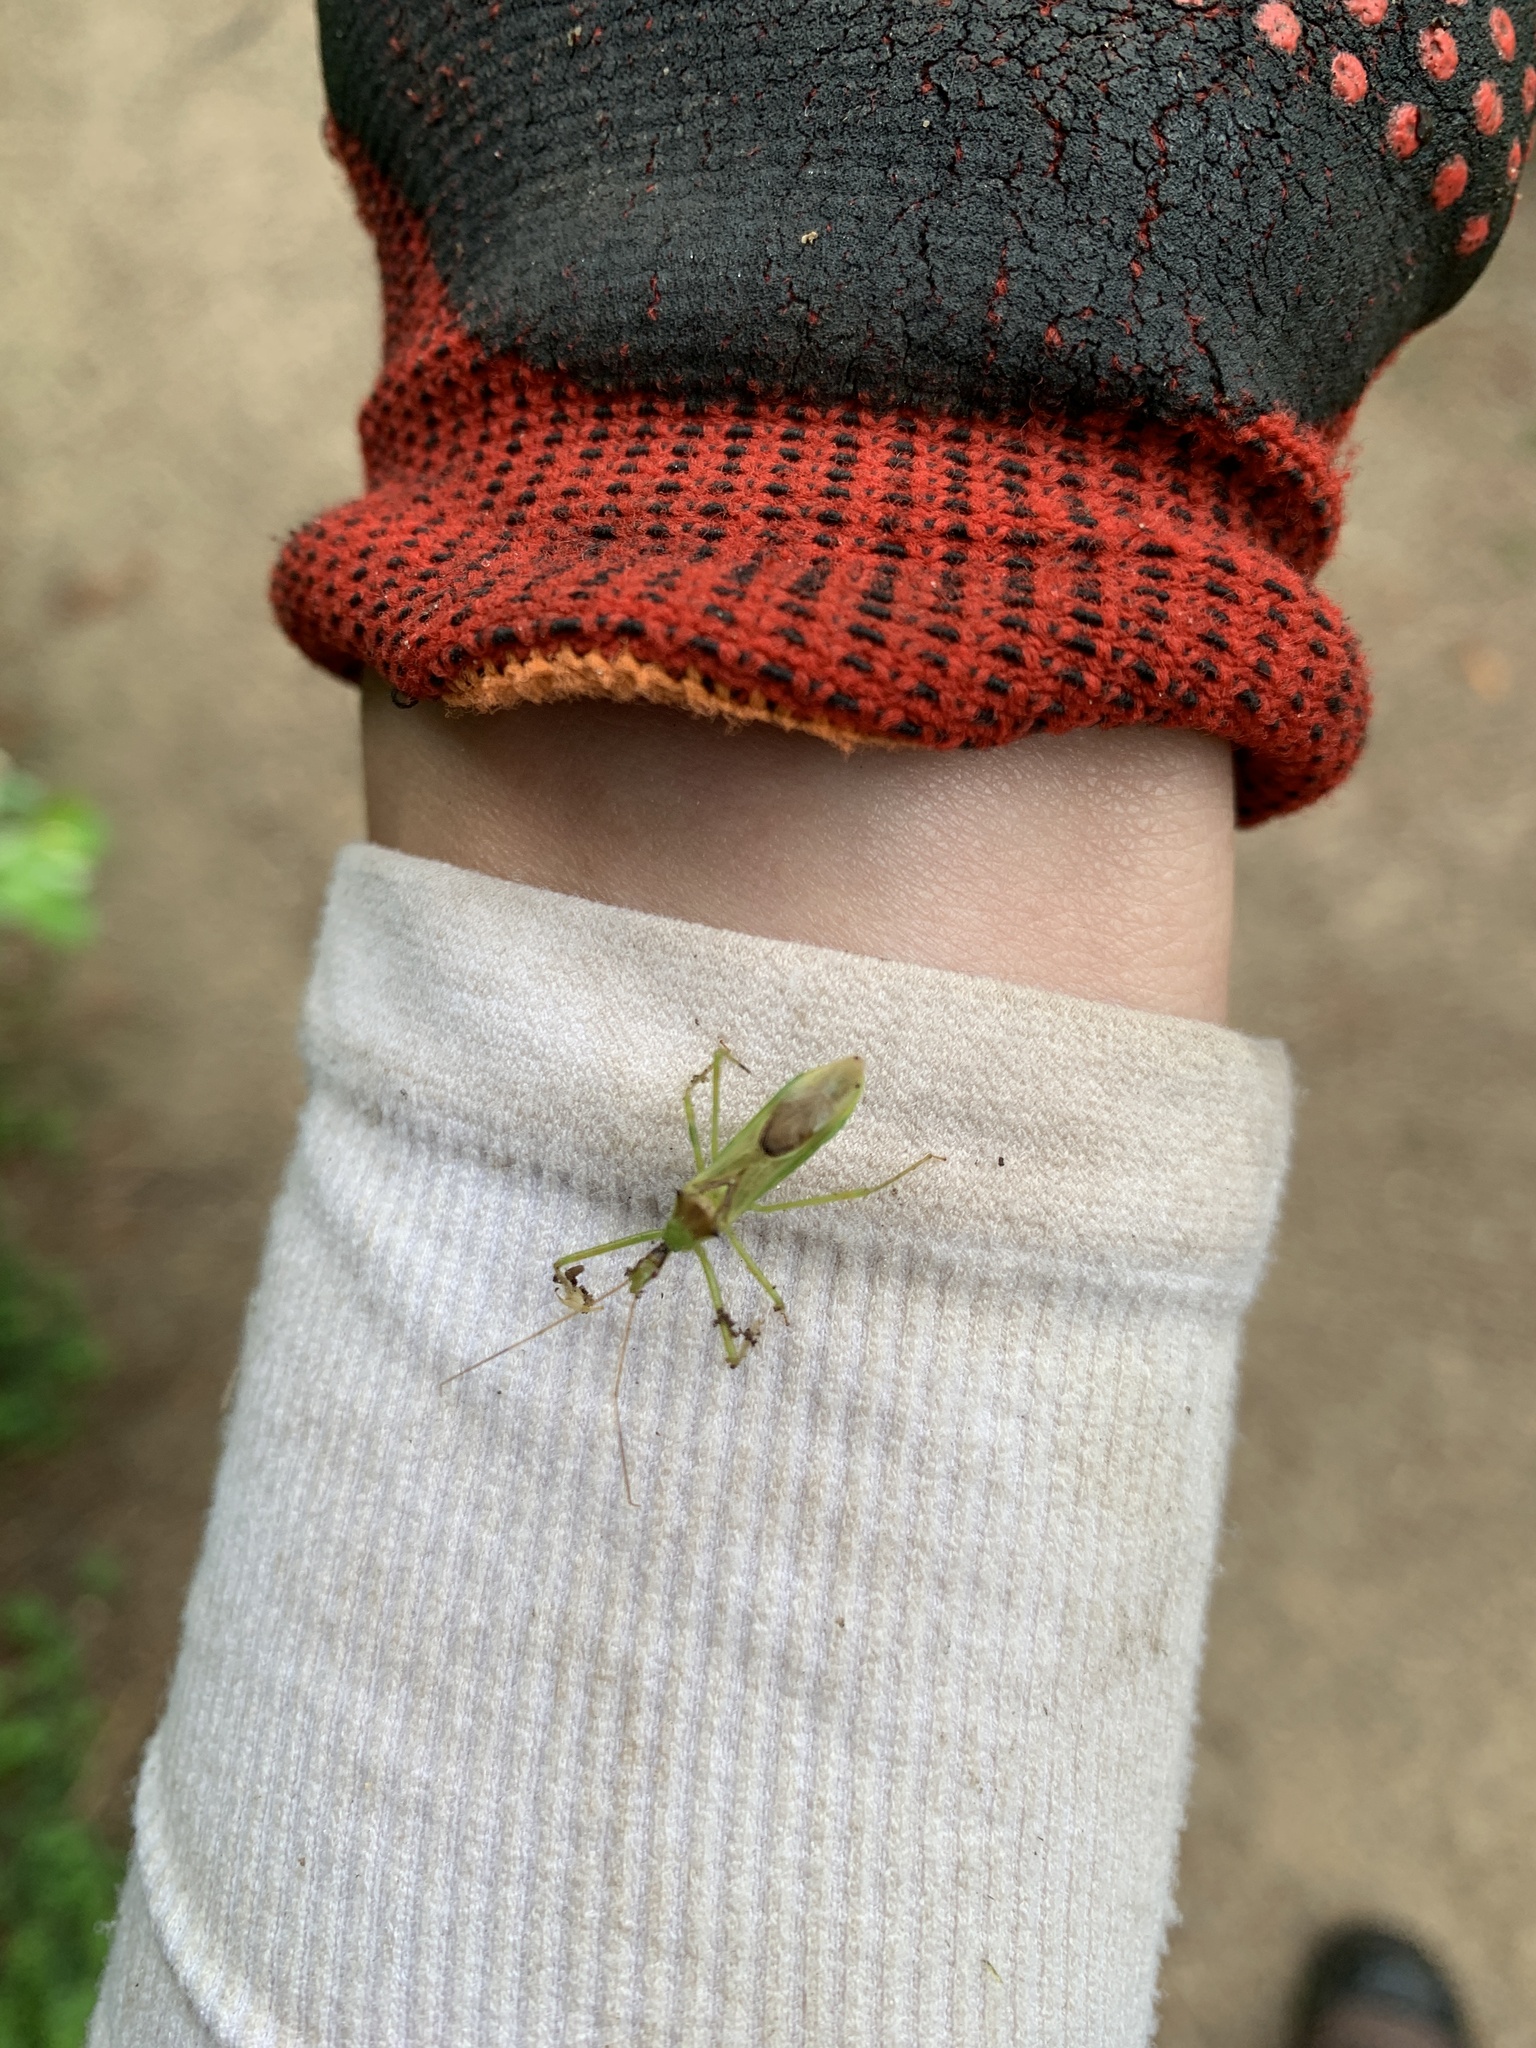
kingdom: Animalia
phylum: Arthropoda
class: Insecta
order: Hemiptera
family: Reduviidae
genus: Zelus
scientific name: Zelus luridus
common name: Pale green assassin bug
